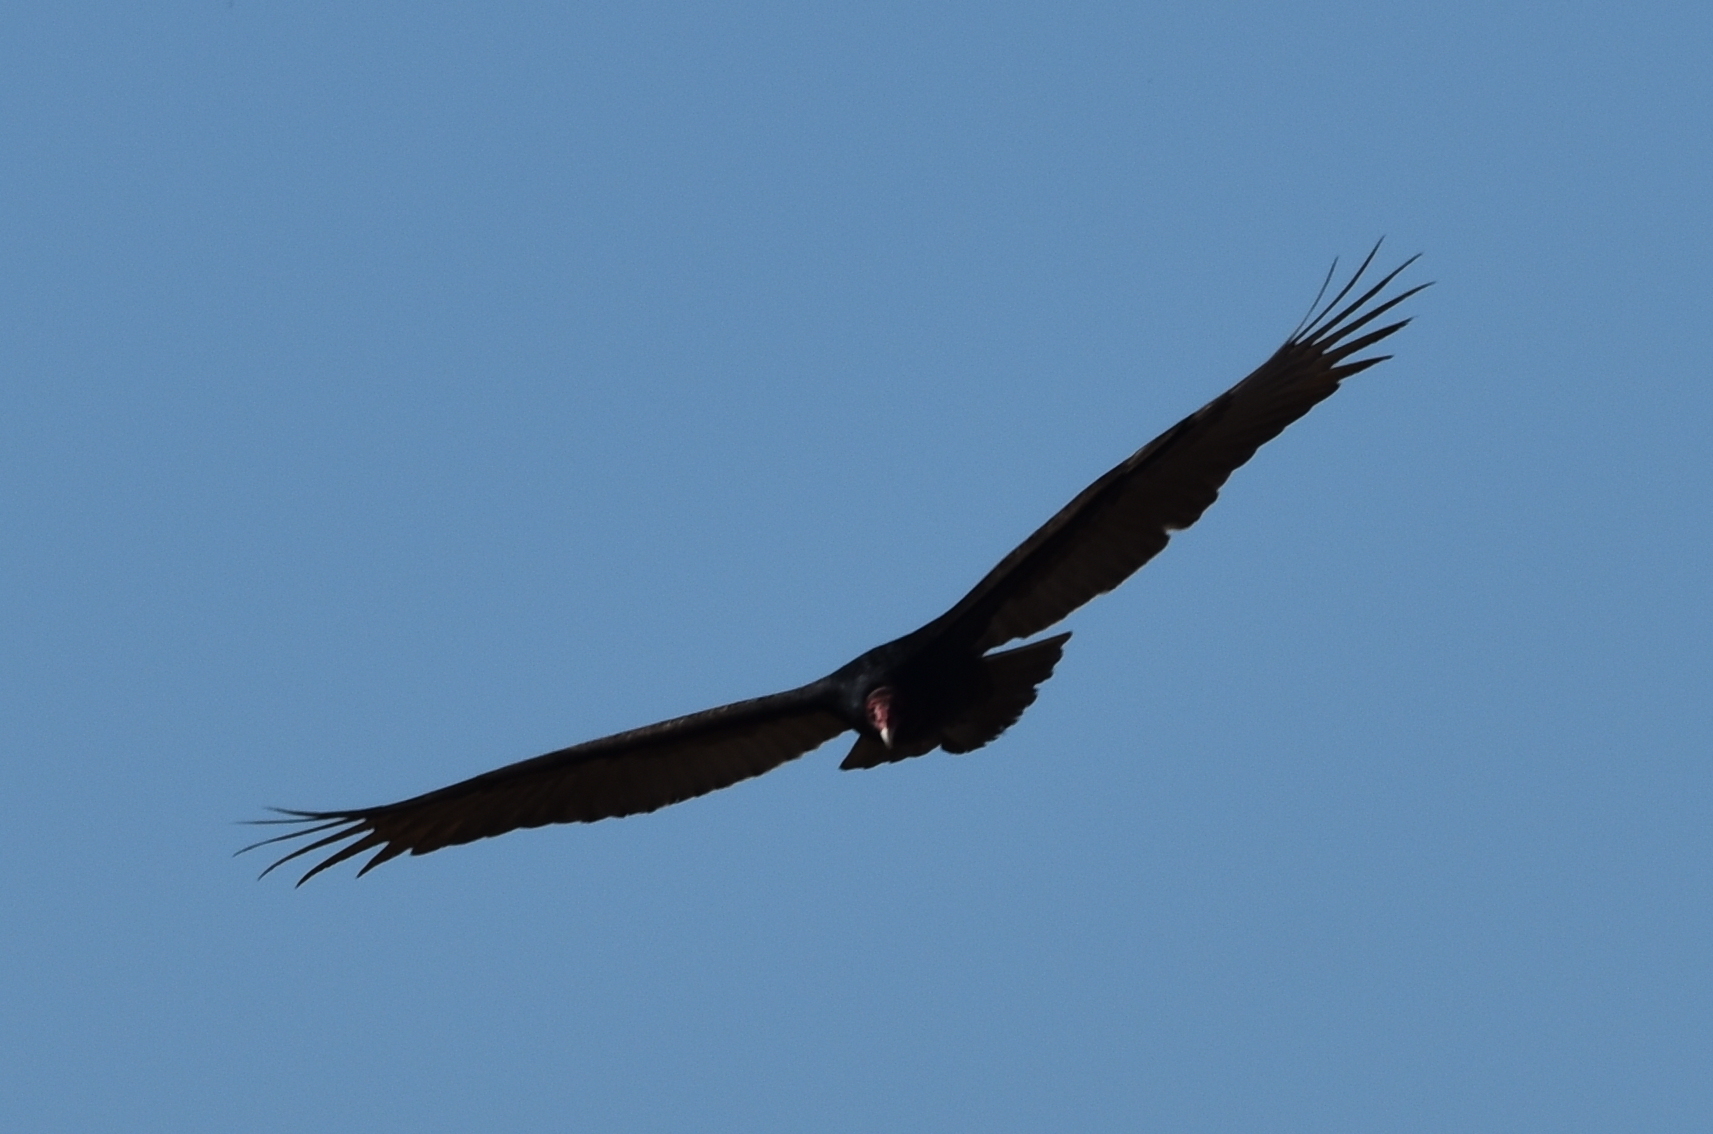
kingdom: Animalia
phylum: Chordata
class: Aves
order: Accipitriformes
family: Cathartidae
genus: Cathartes
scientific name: Cathartes aura
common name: Turkey vulture
